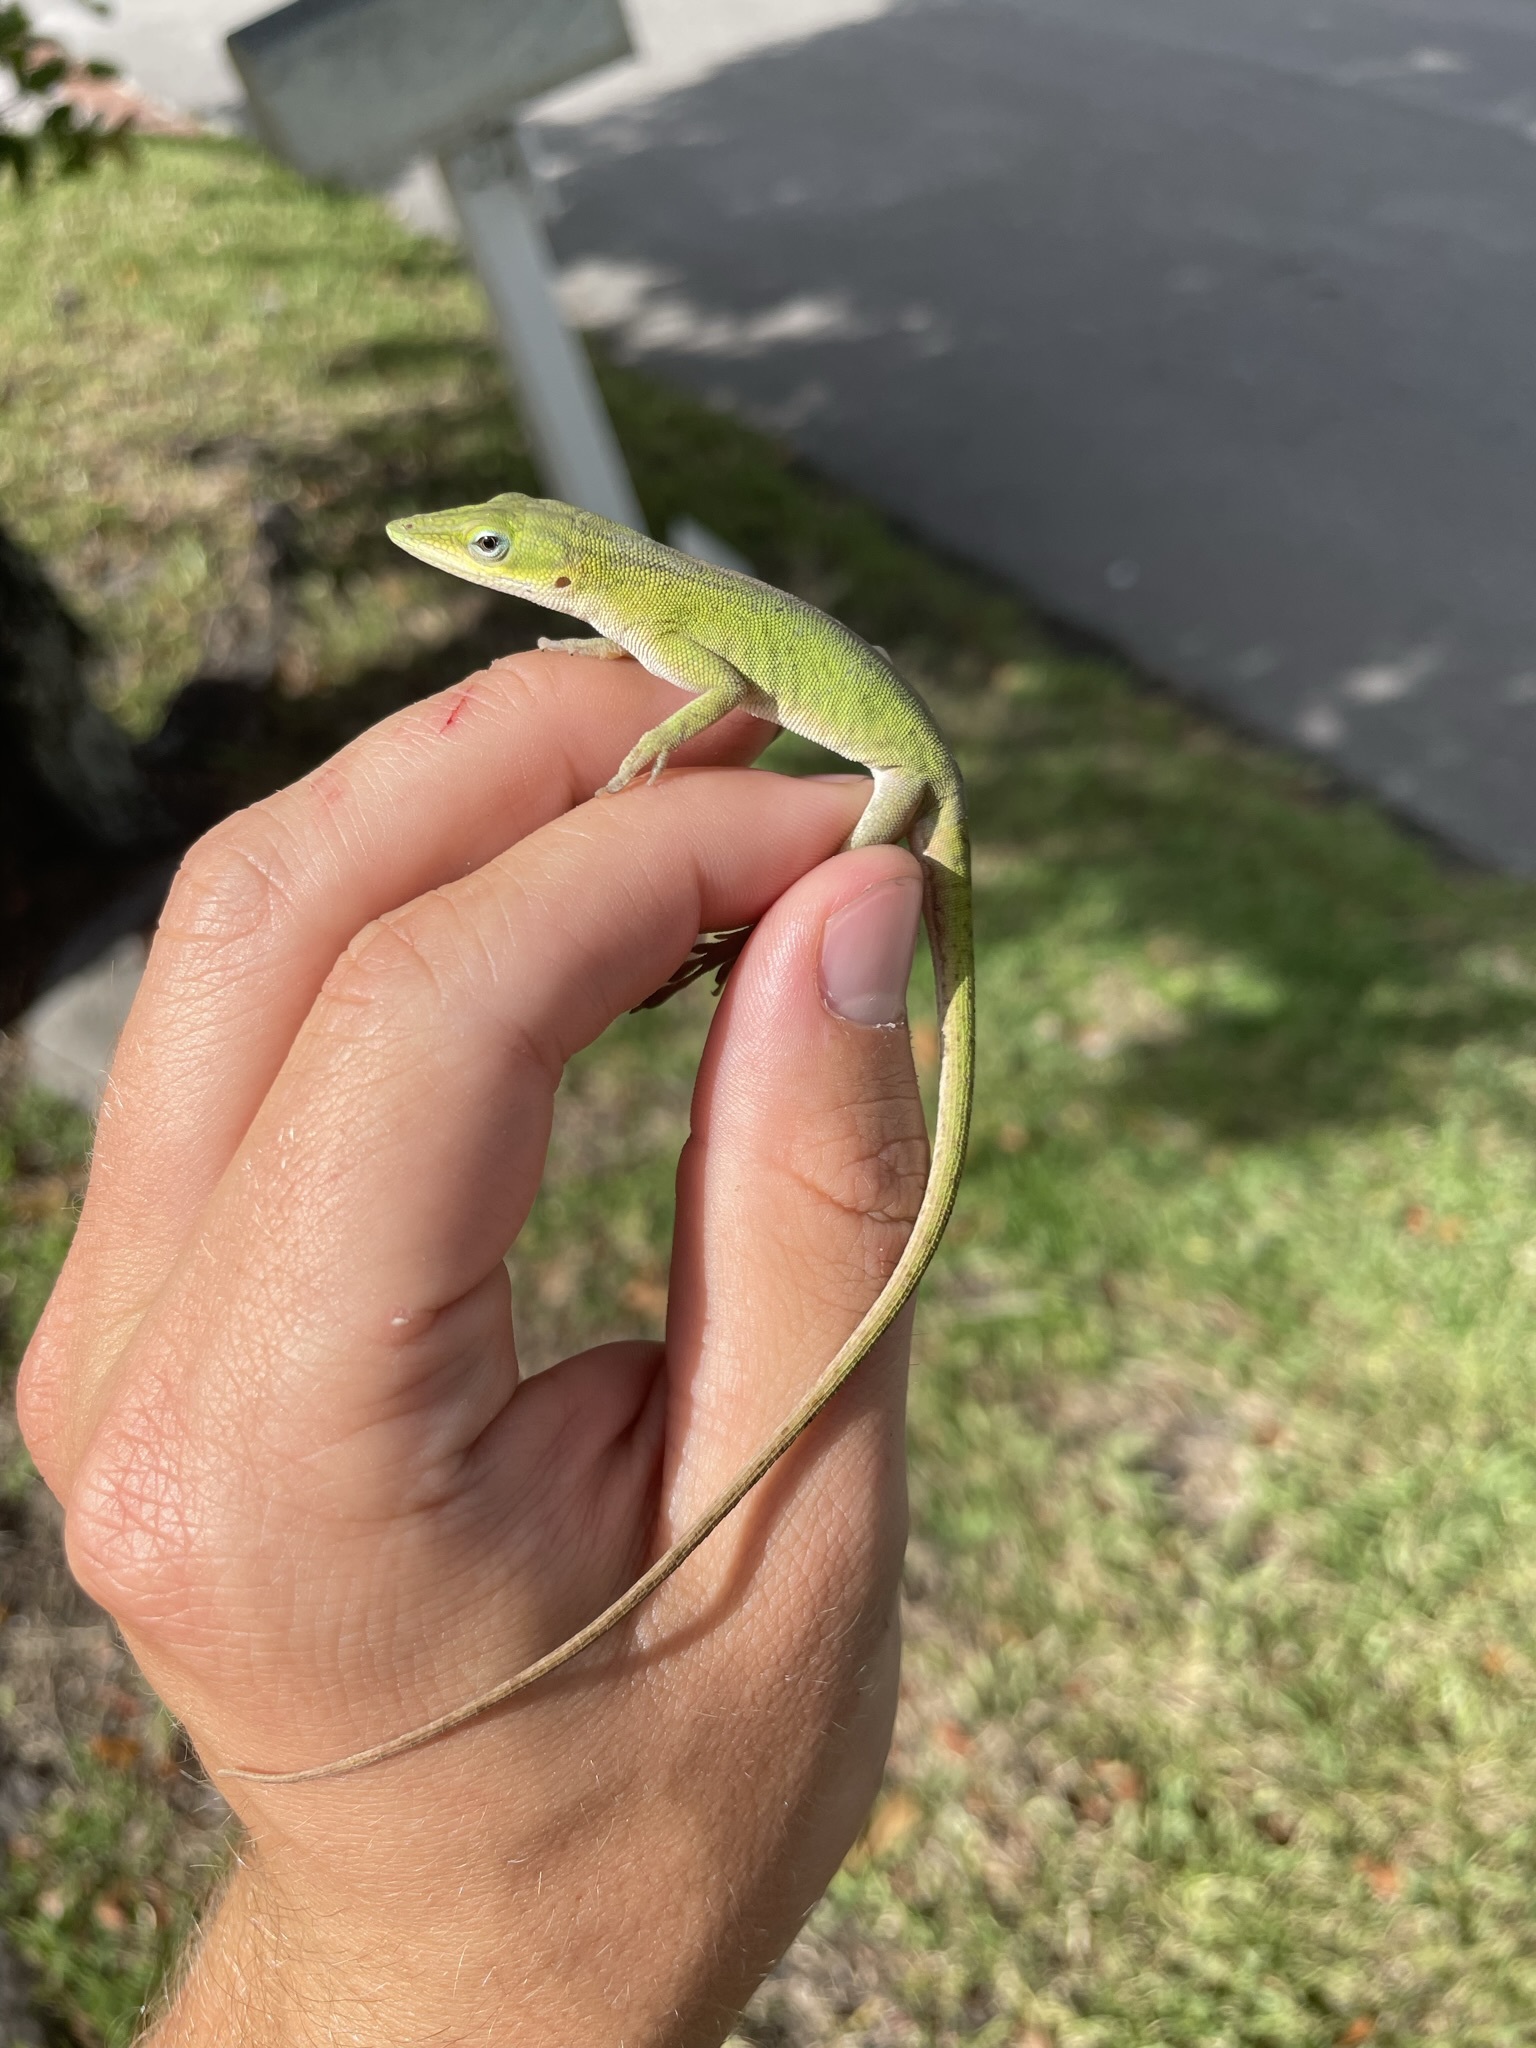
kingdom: Animalia
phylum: Chordata
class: Squamata
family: Dactyloidae
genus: Anolis
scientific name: Anolis carolinensis
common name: Green anole
